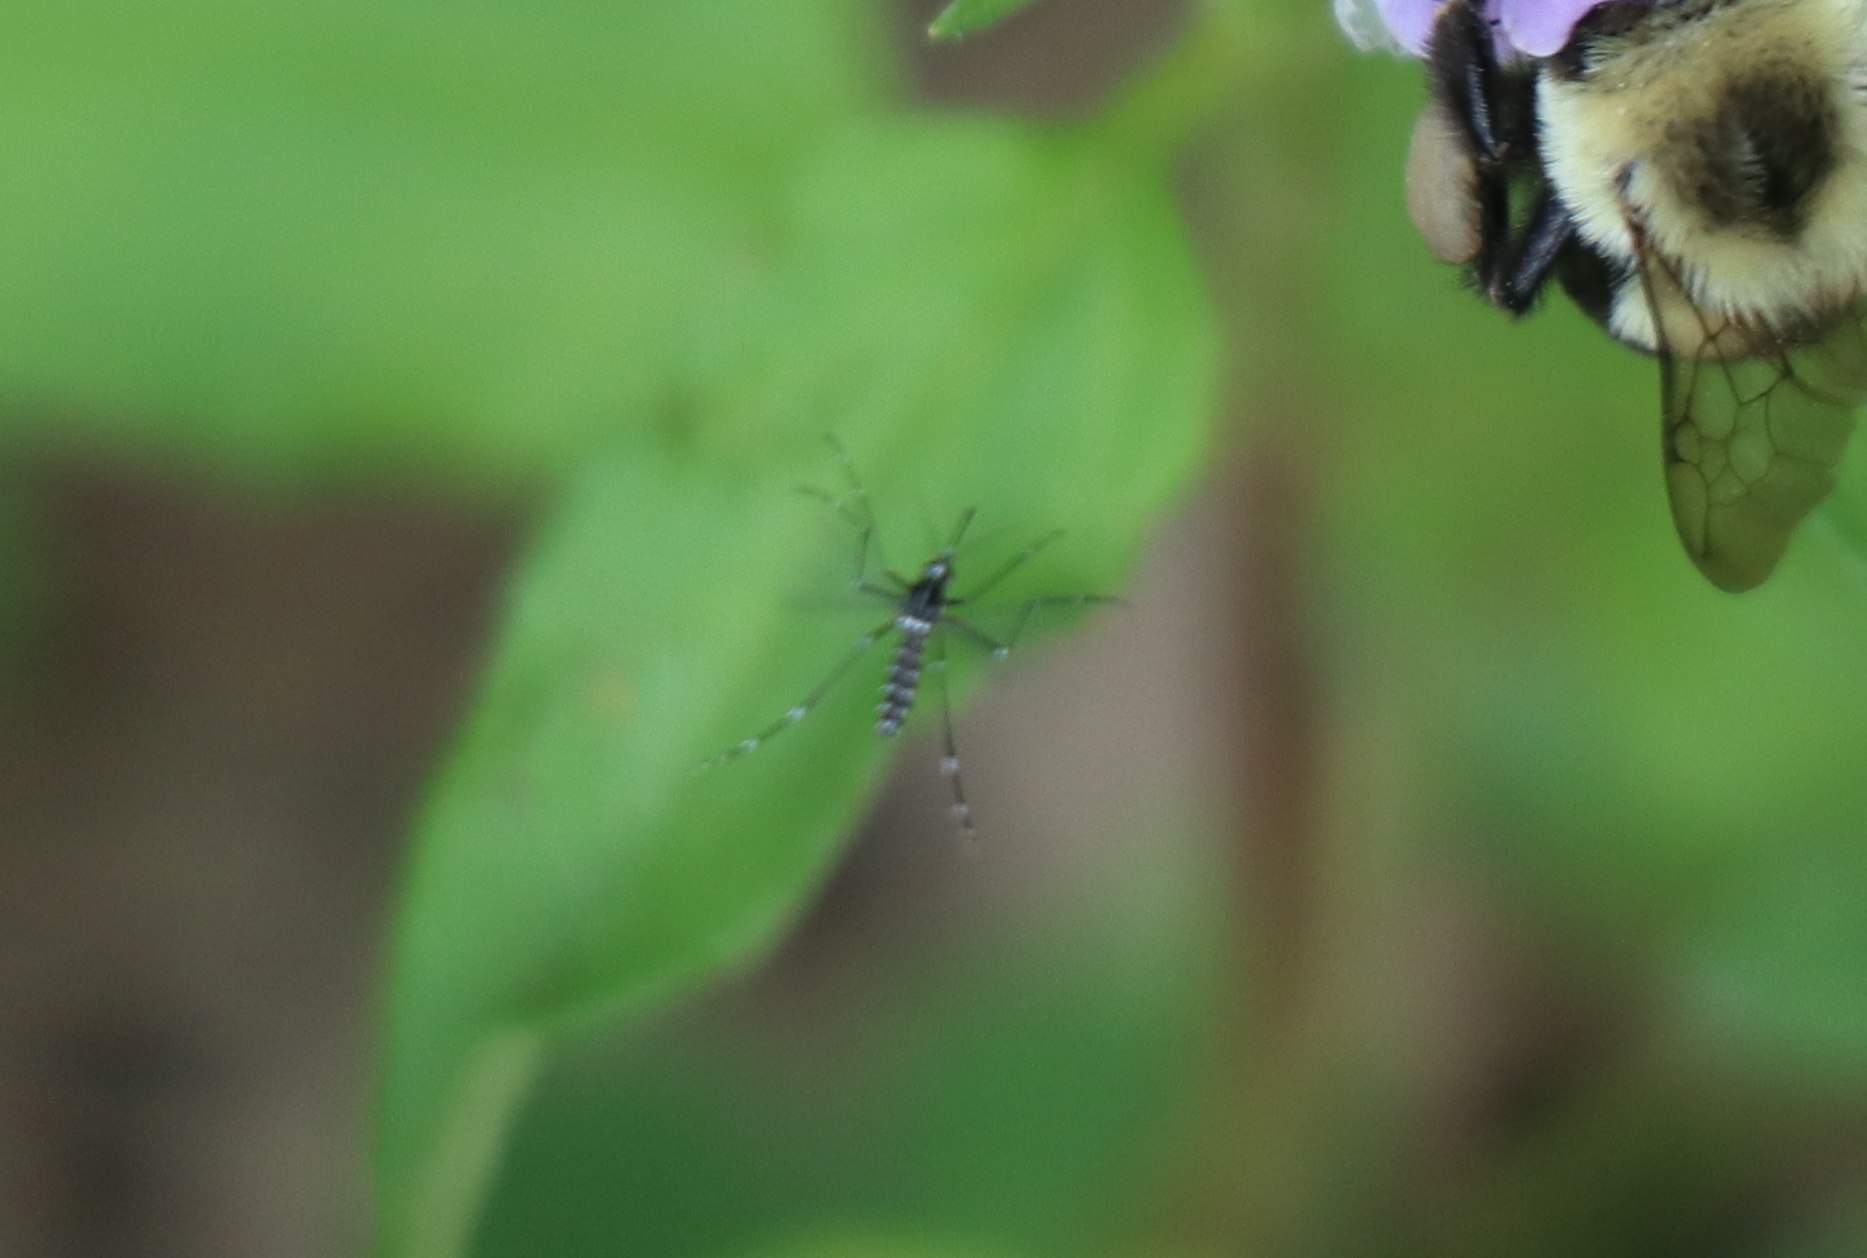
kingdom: Animalia
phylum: Arthropoda
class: Insecta
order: Diptera
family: Culicidae
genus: Aedes
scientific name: Aedes albopictus
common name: Tiger mosquito
